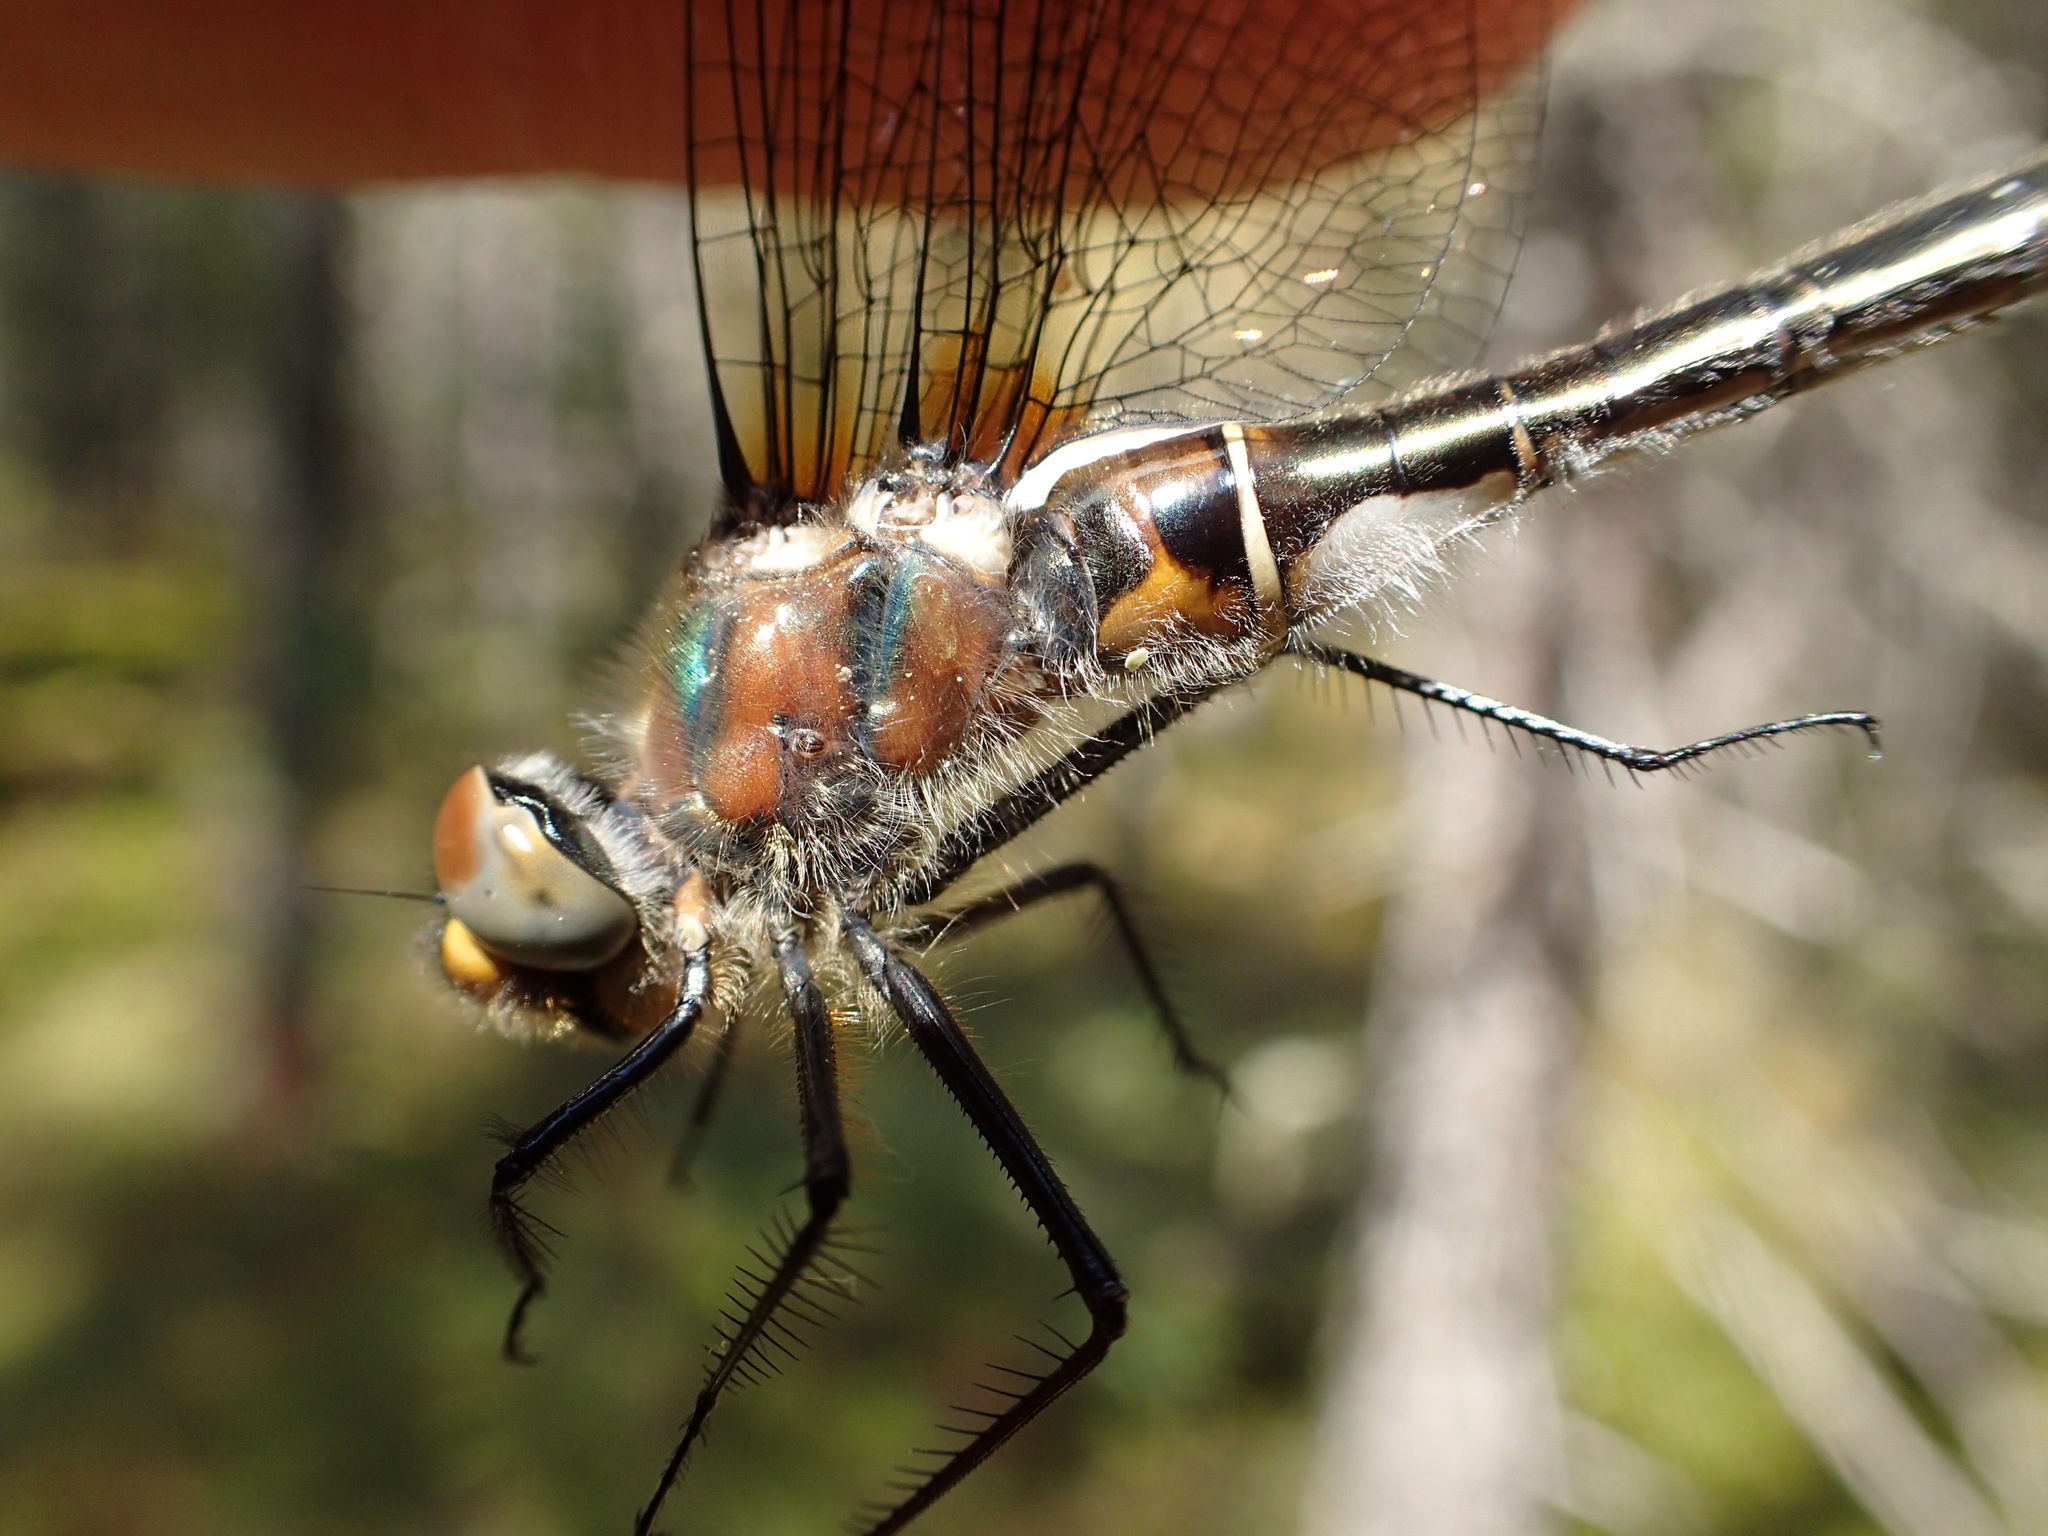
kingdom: Animalia
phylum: Arthropoda
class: Insecta
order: Odonata
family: Corduliidae
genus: Cordulia
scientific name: Cordulia shurtleffii
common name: American emerald
